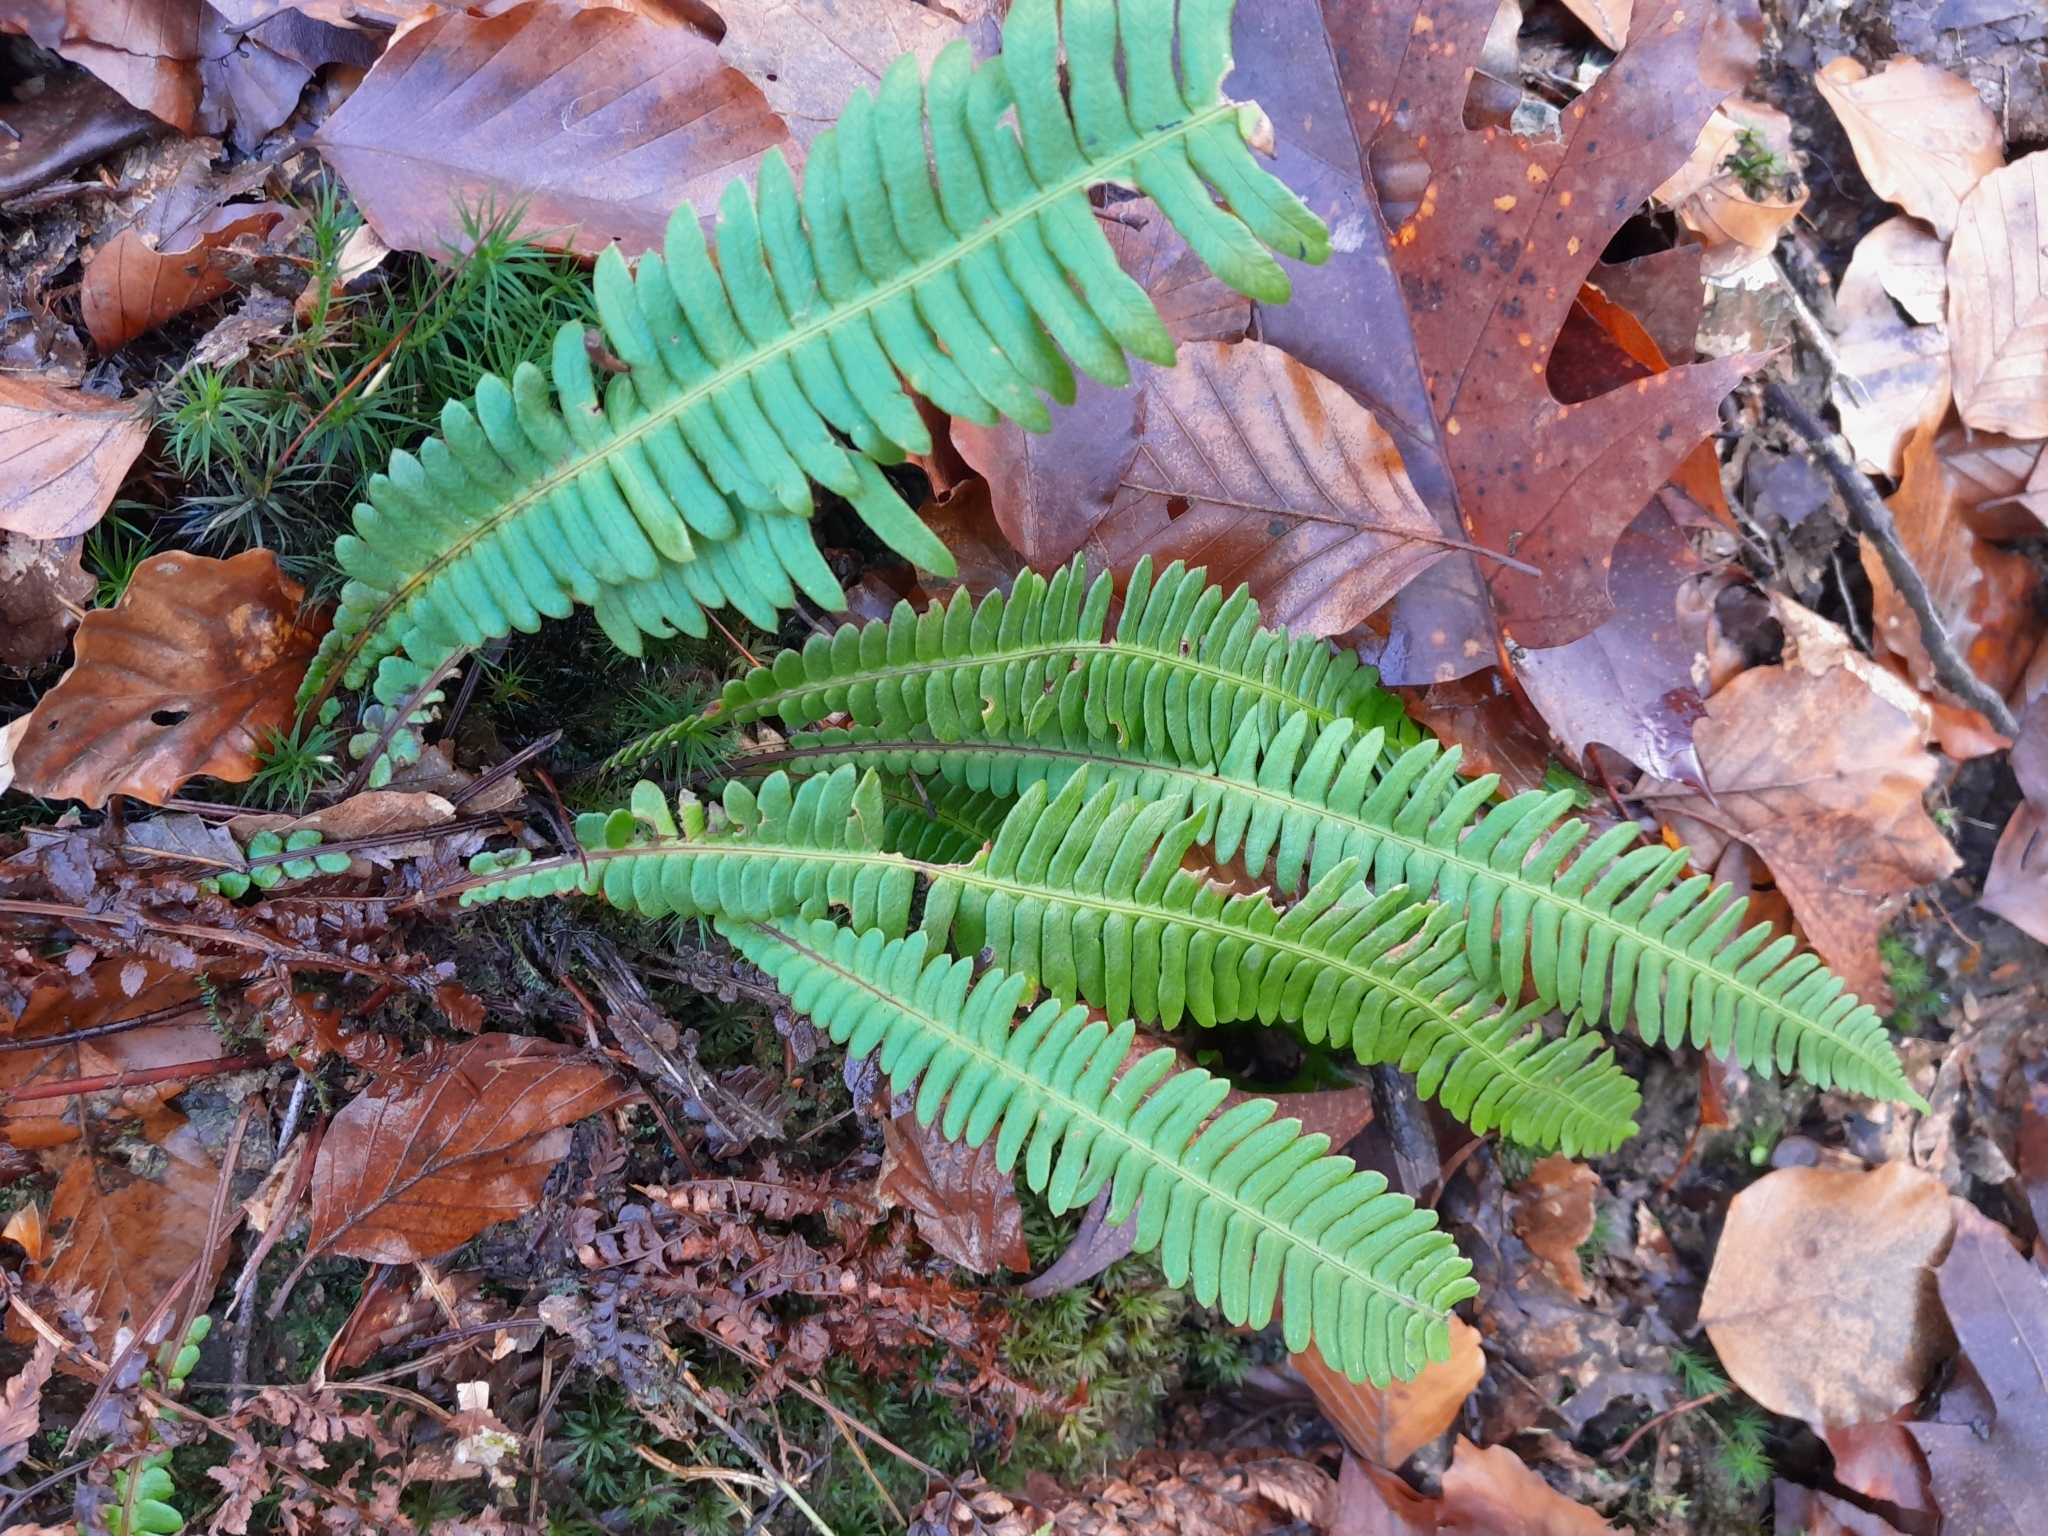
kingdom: Plantae
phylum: Tracheophyta
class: Polypodiopsida
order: Polypodiales
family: Blechnaceae
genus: Struthiopteris
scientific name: Struthiopteris spicant
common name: Deer fern
